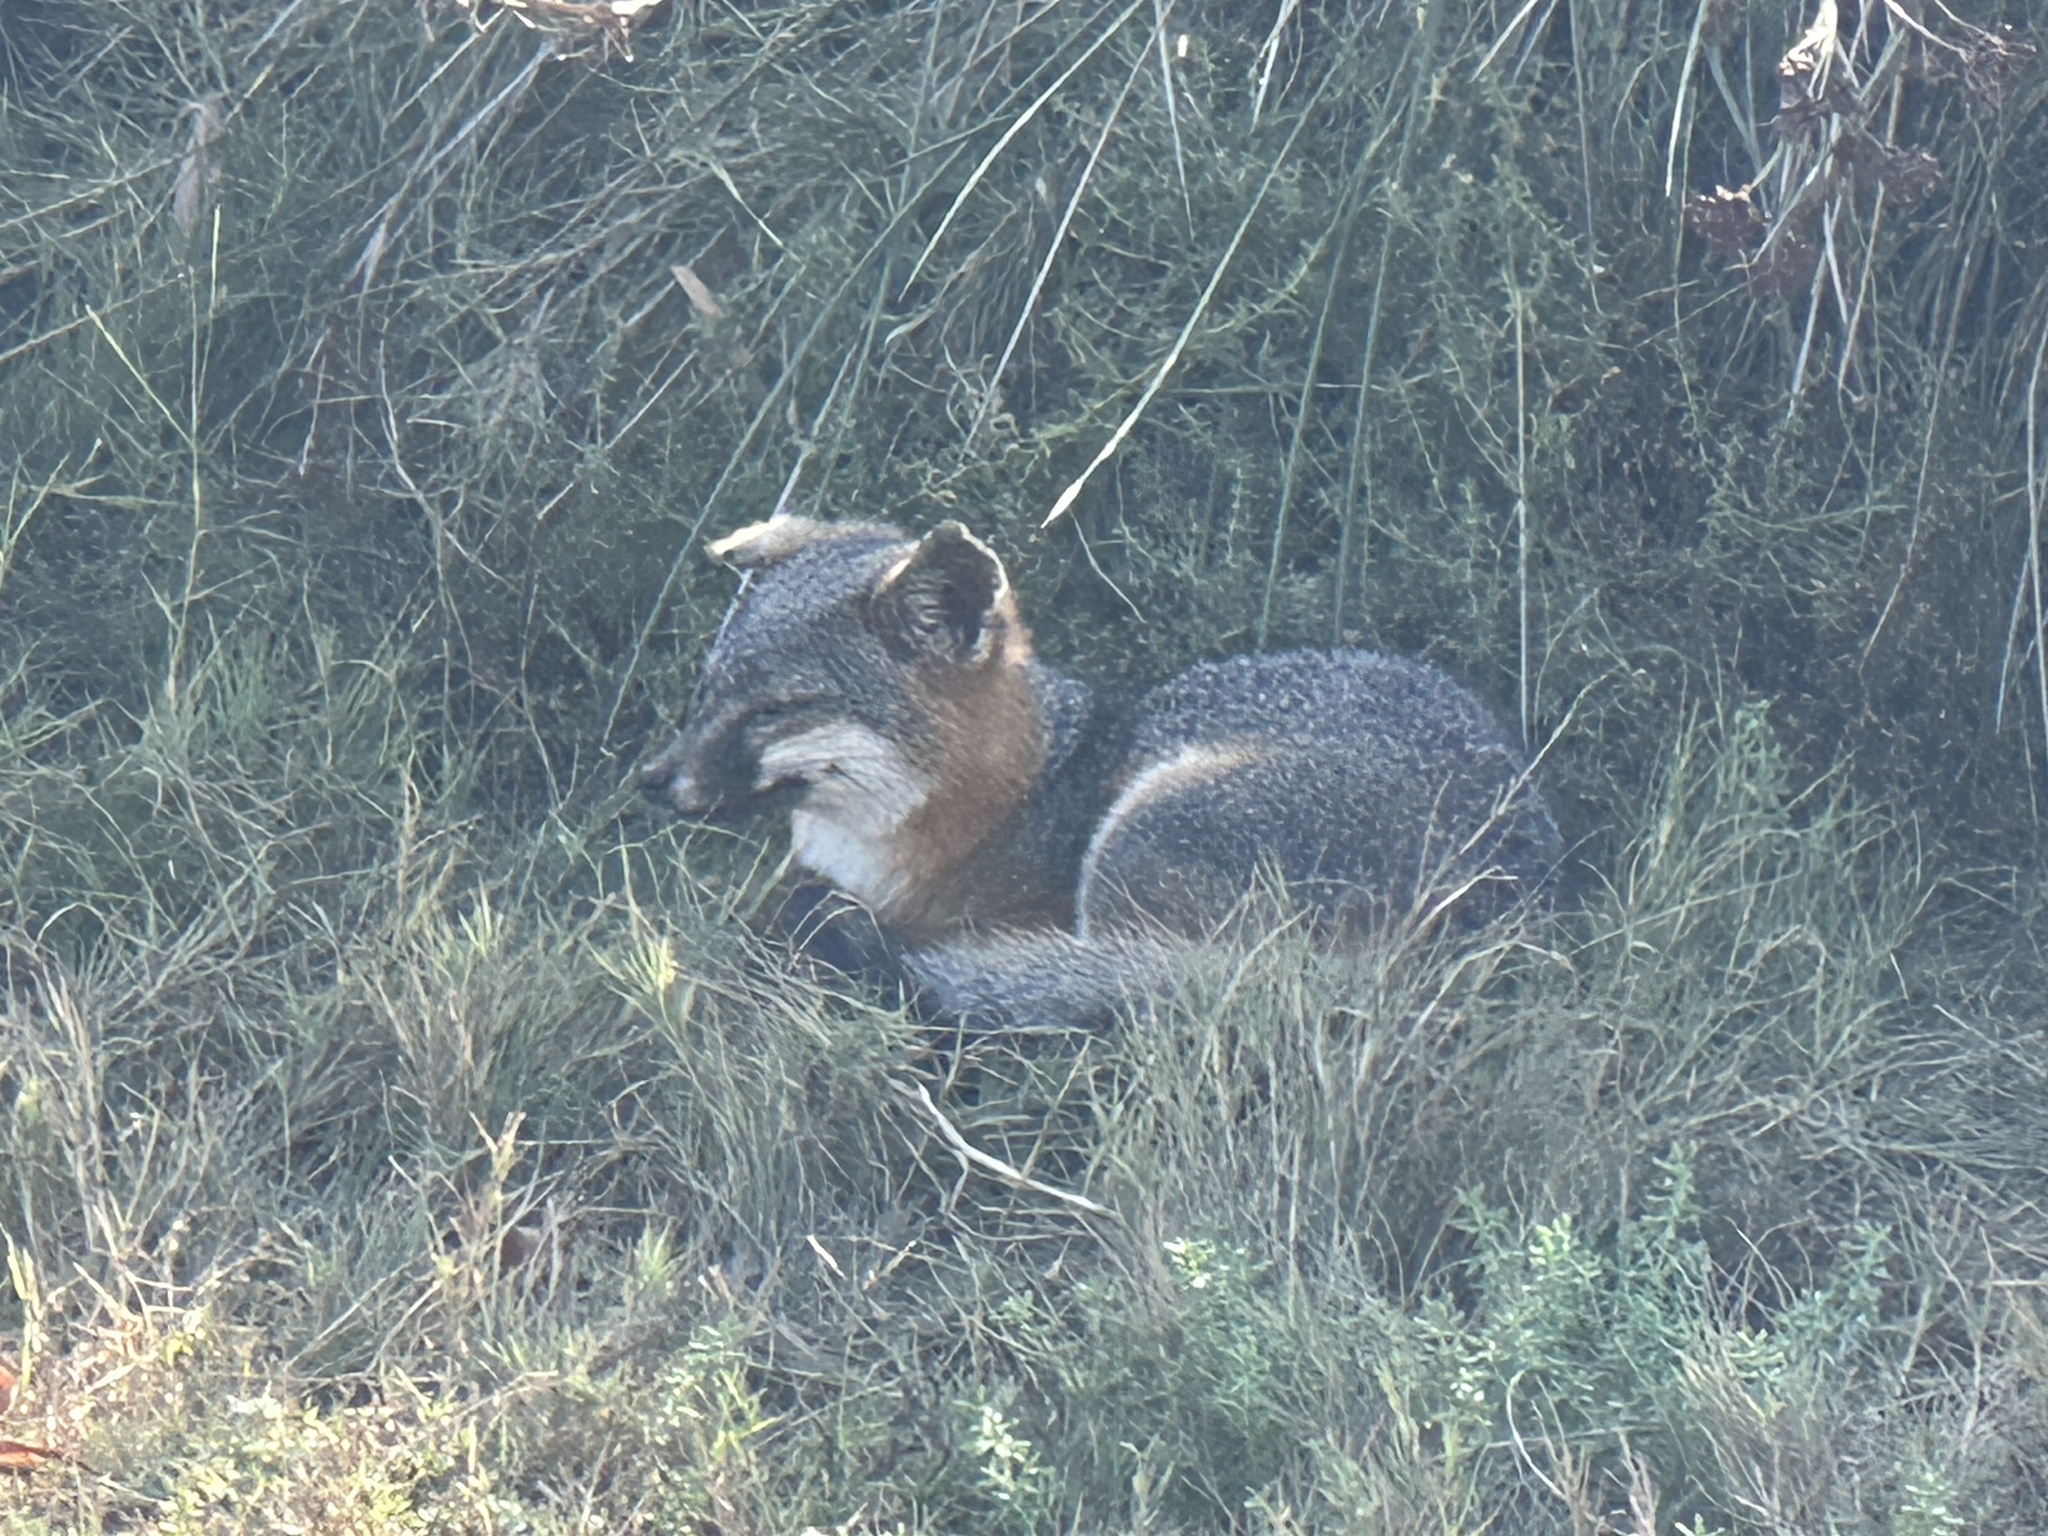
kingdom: Animalia
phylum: Chordata
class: Mammalia
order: Carnivora
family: Canidae
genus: Urocyon
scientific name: Urocyon littoralis
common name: Island gray fox
